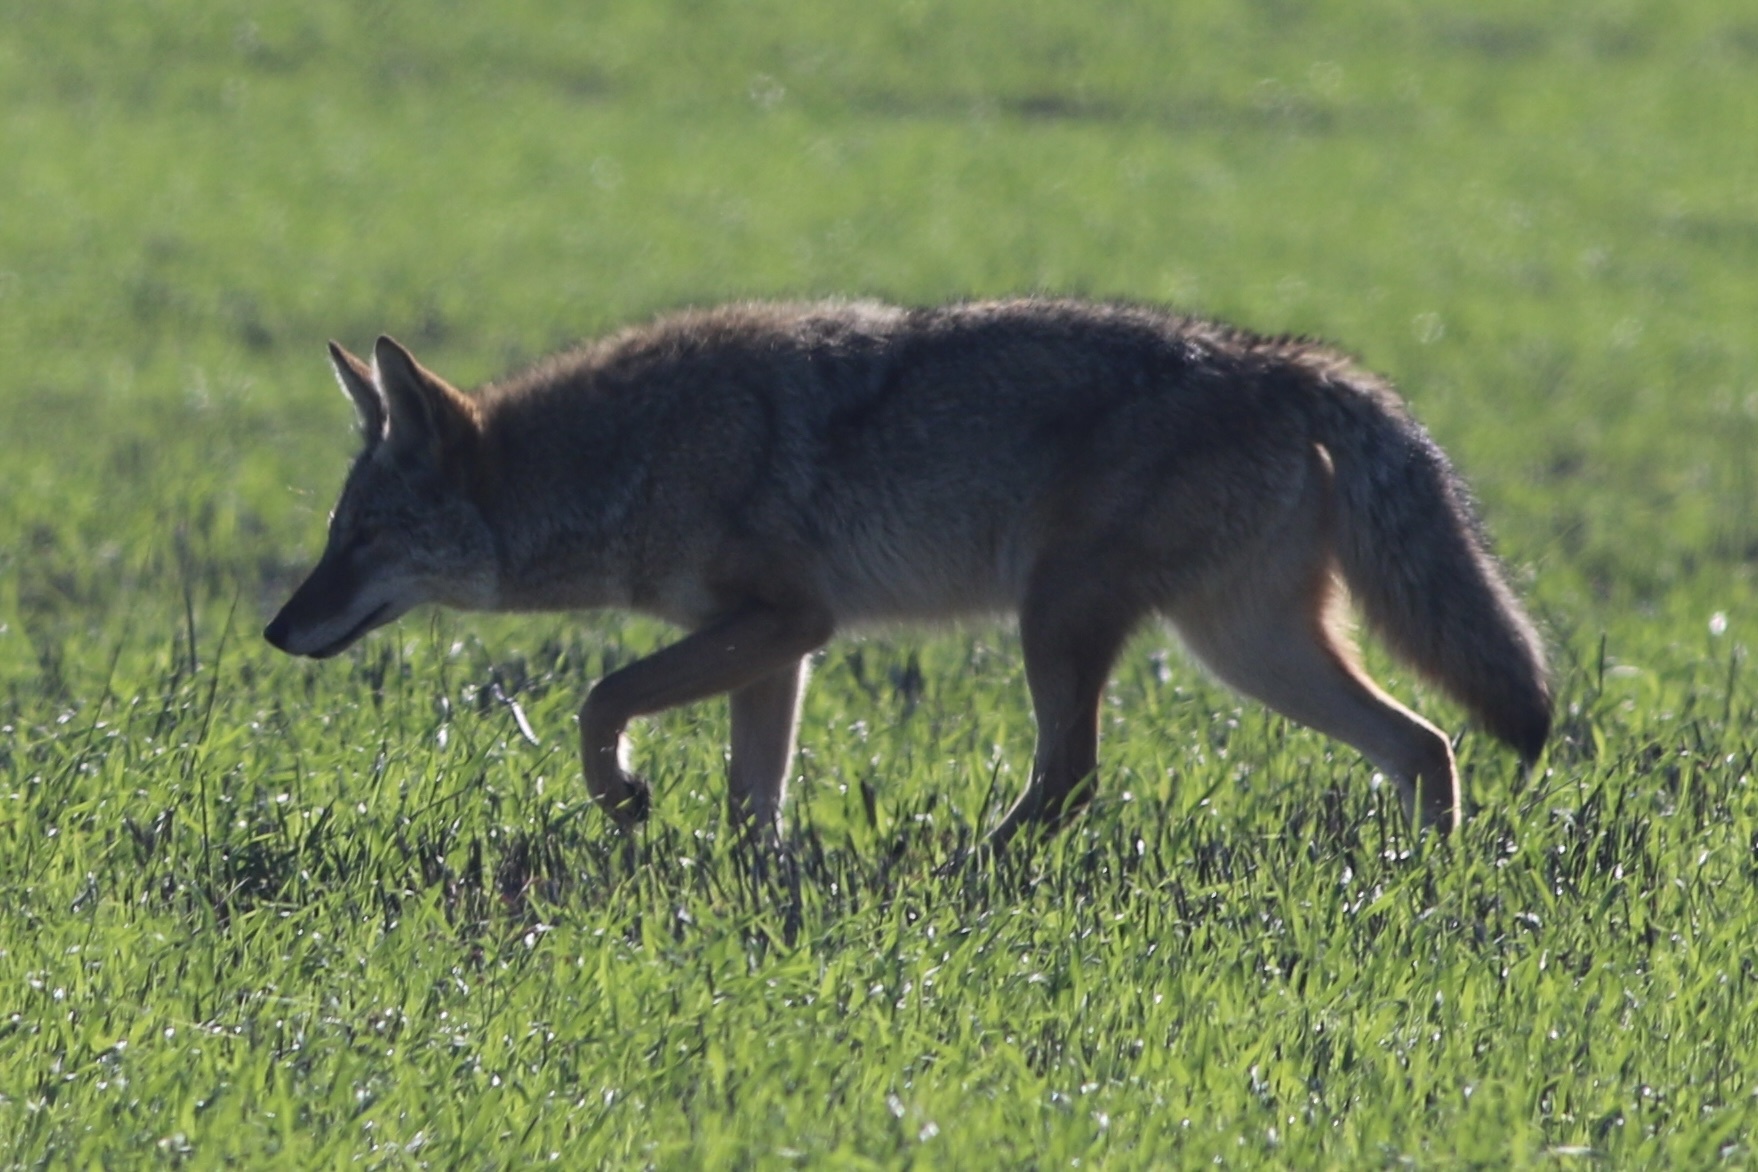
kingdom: Animalia
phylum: Chordata
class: Mammalia
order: Carnivora
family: Canidae
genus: Canis
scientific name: Canis latrans
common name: Coyote
